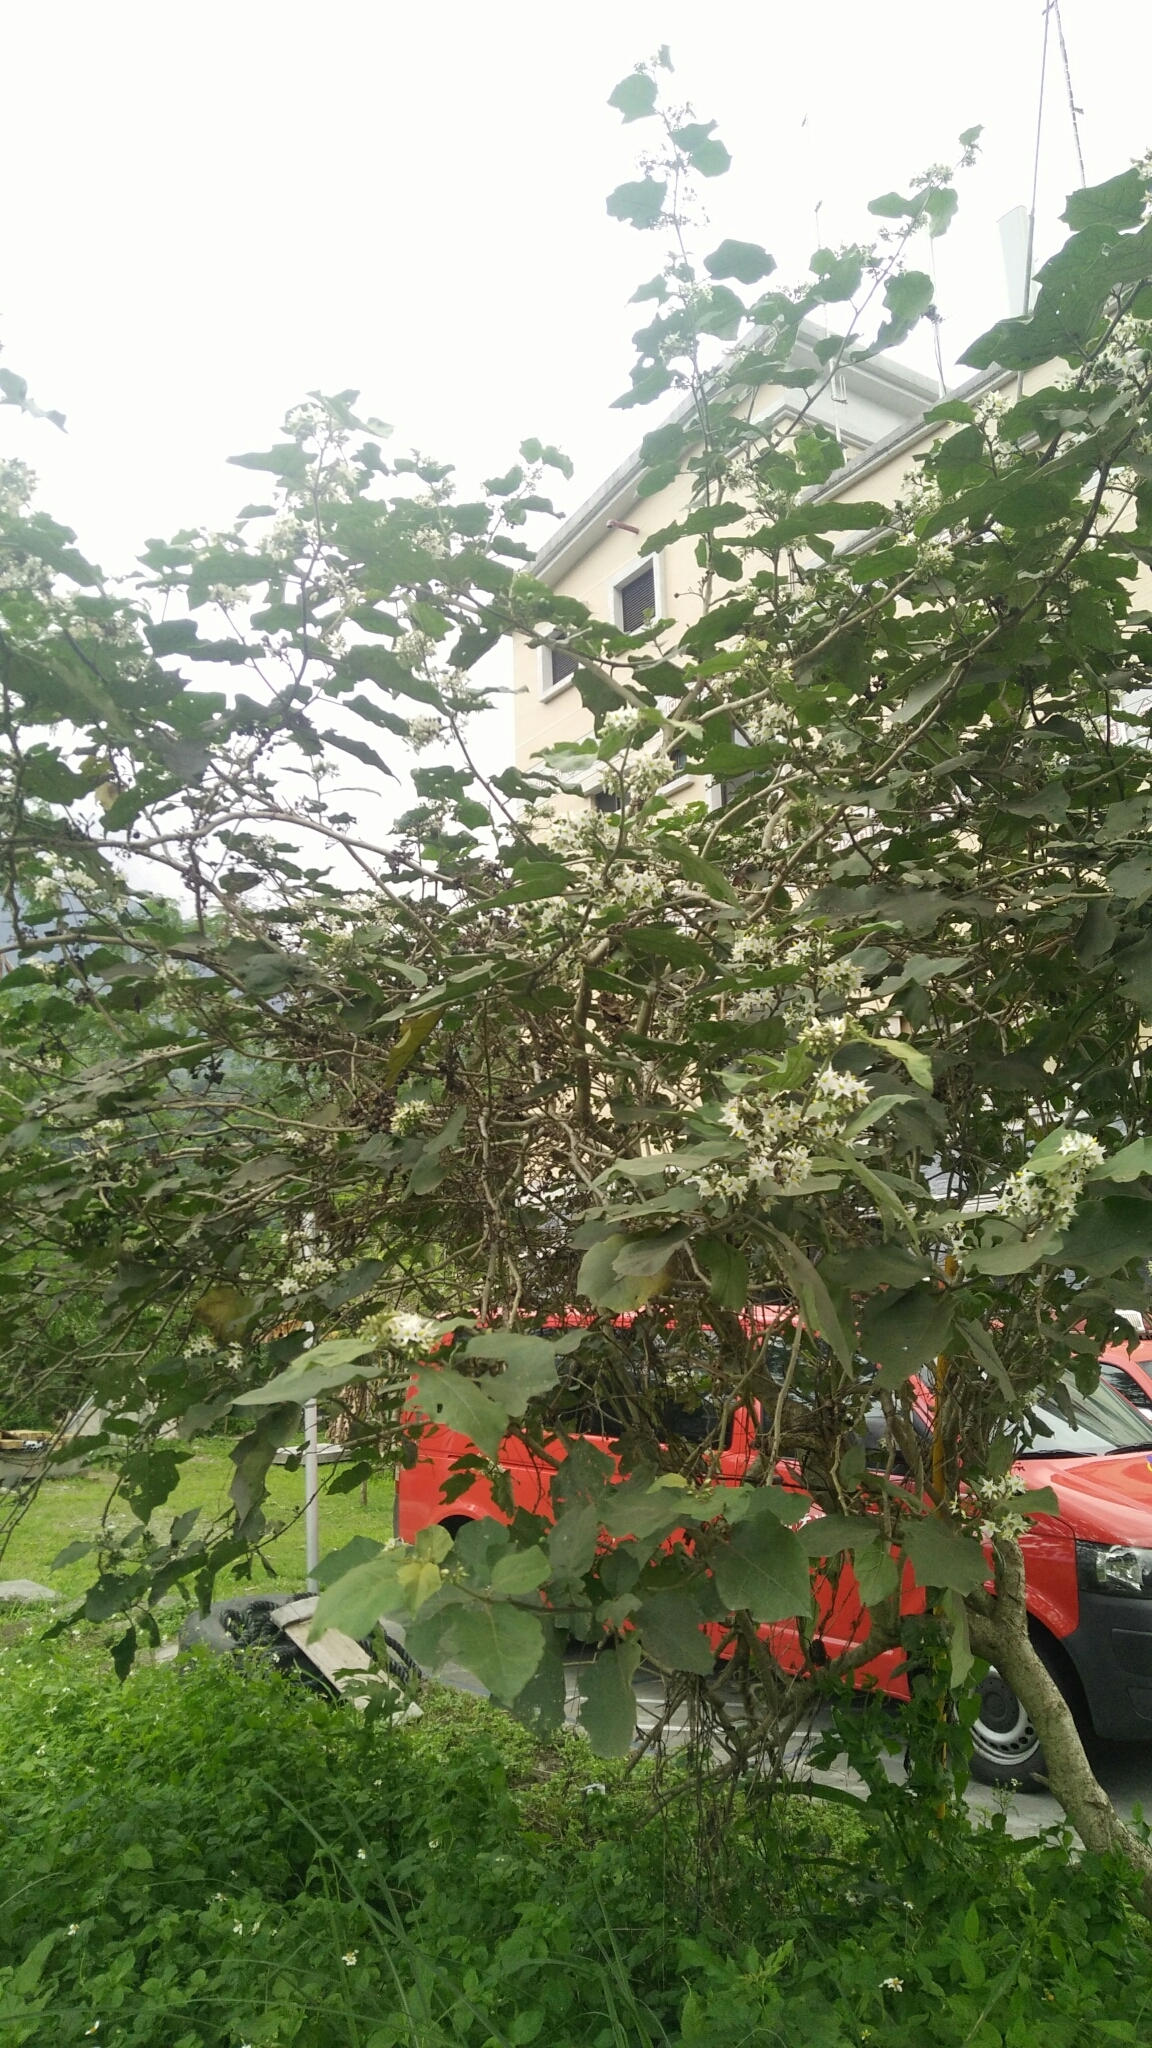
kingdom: Plantae
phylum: Tracheophyta
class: Magnoliopsida
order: Solanales
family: Solanaceae
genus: Solanum
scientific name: Solanum torvum
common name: Turkey berry
